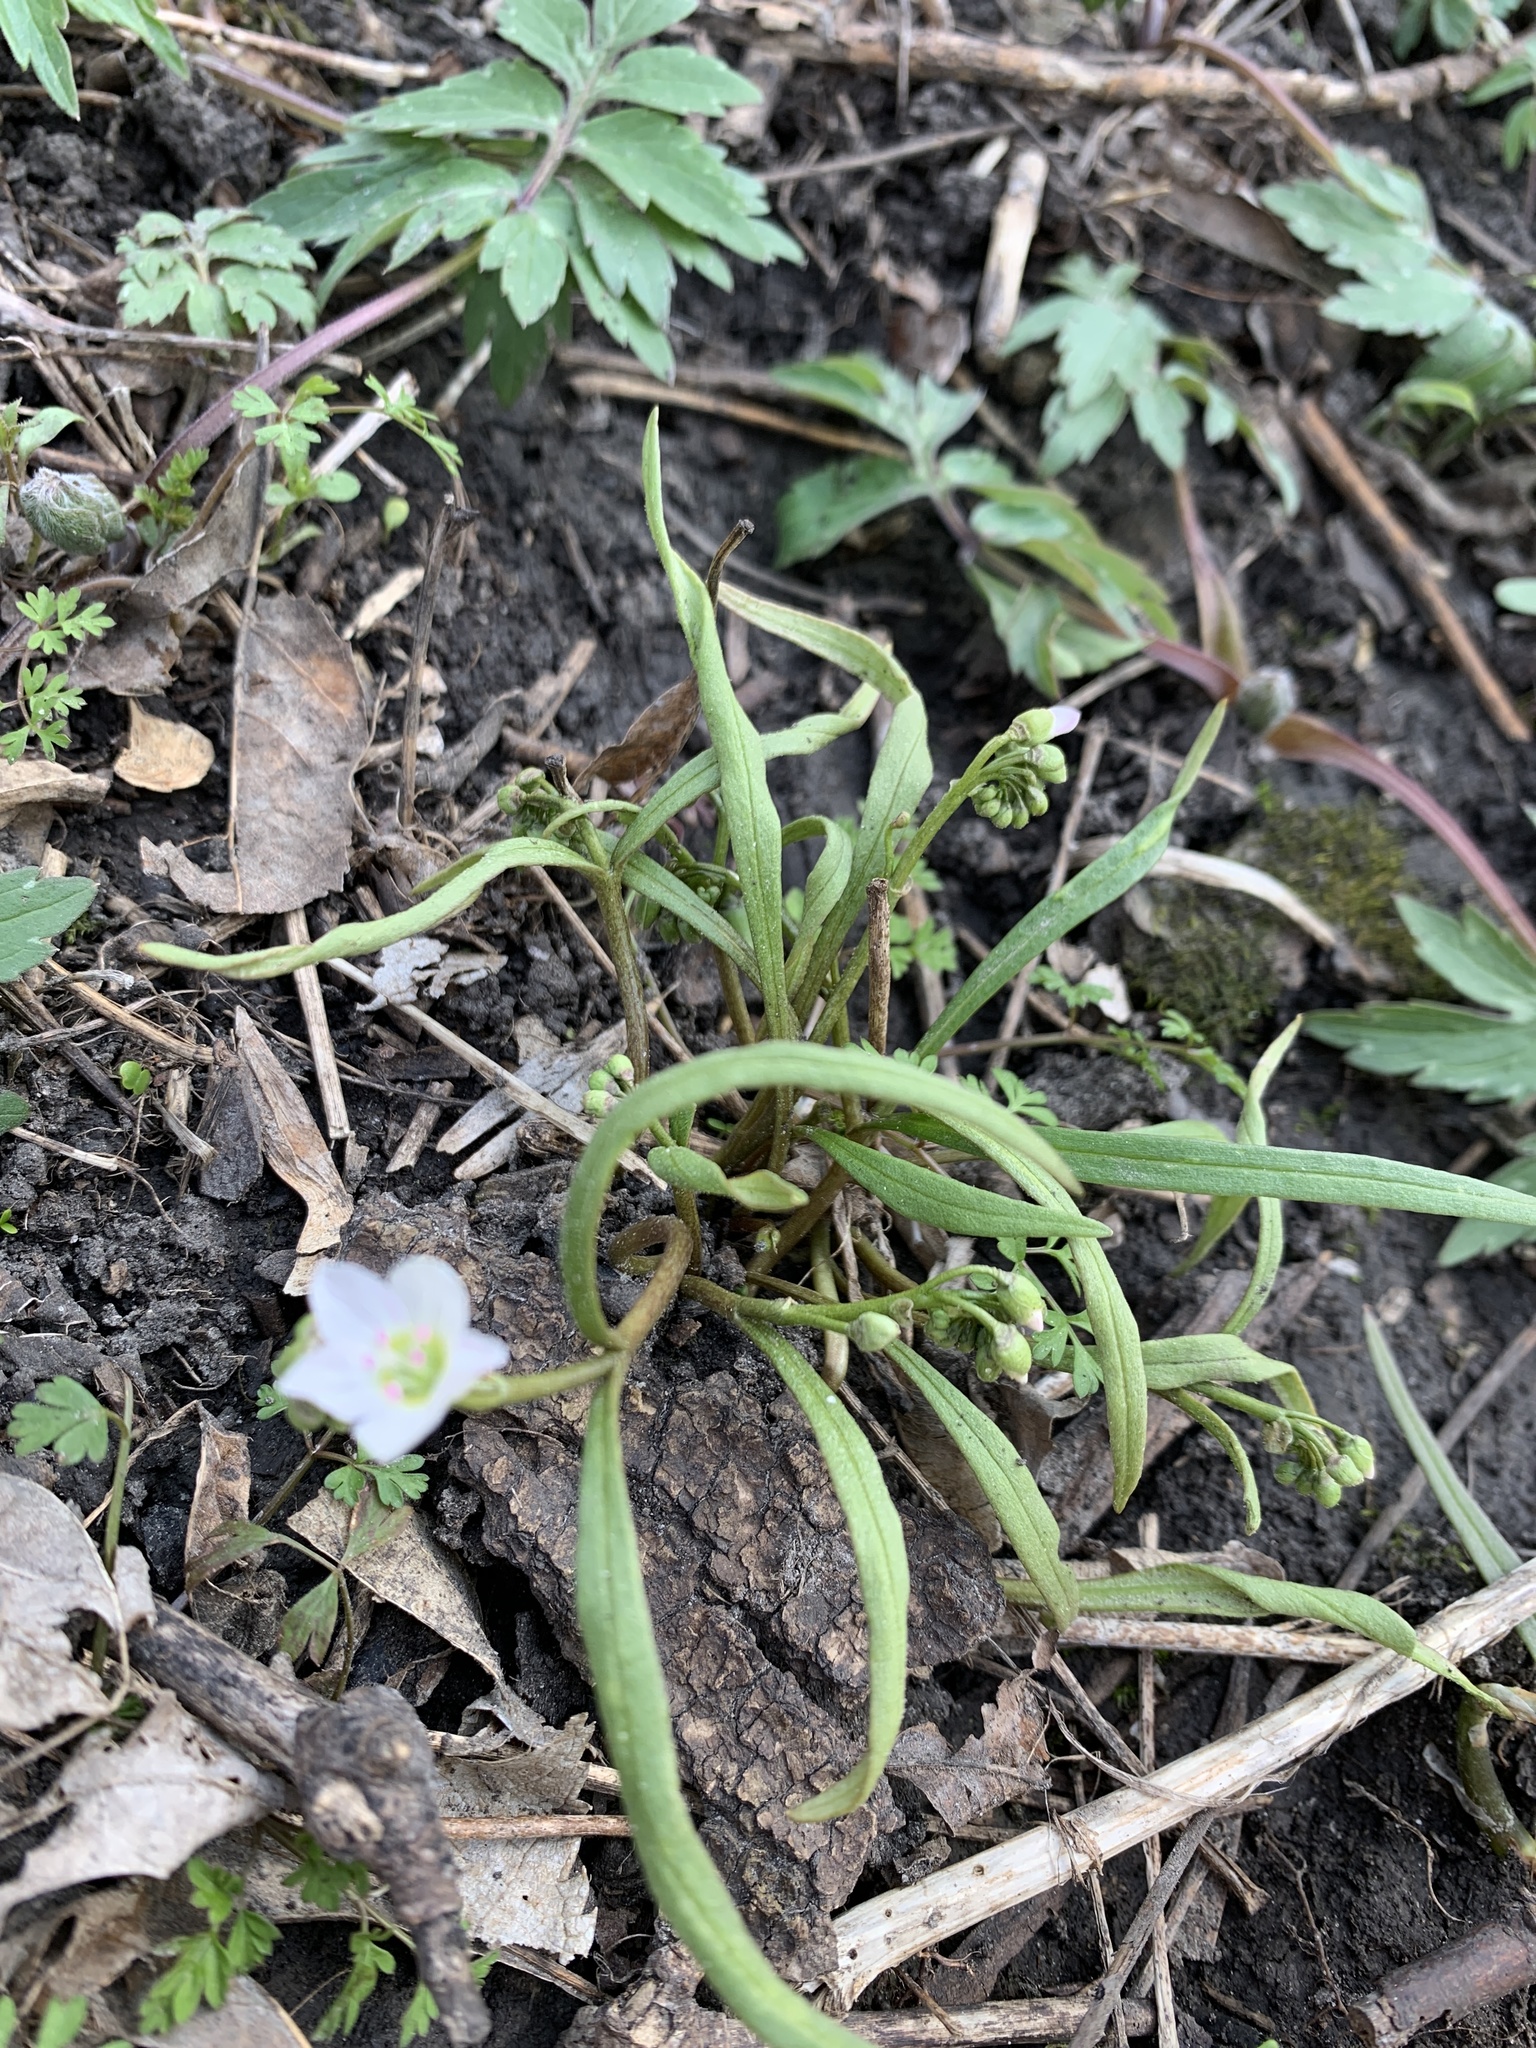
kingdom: Plantae
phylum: Tracheophyta
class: Magnoliopsida
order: Caryophyllales
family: Montiaceae
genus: Claytonia
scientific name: Claytonia virginica
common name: Virginia springbeauty
